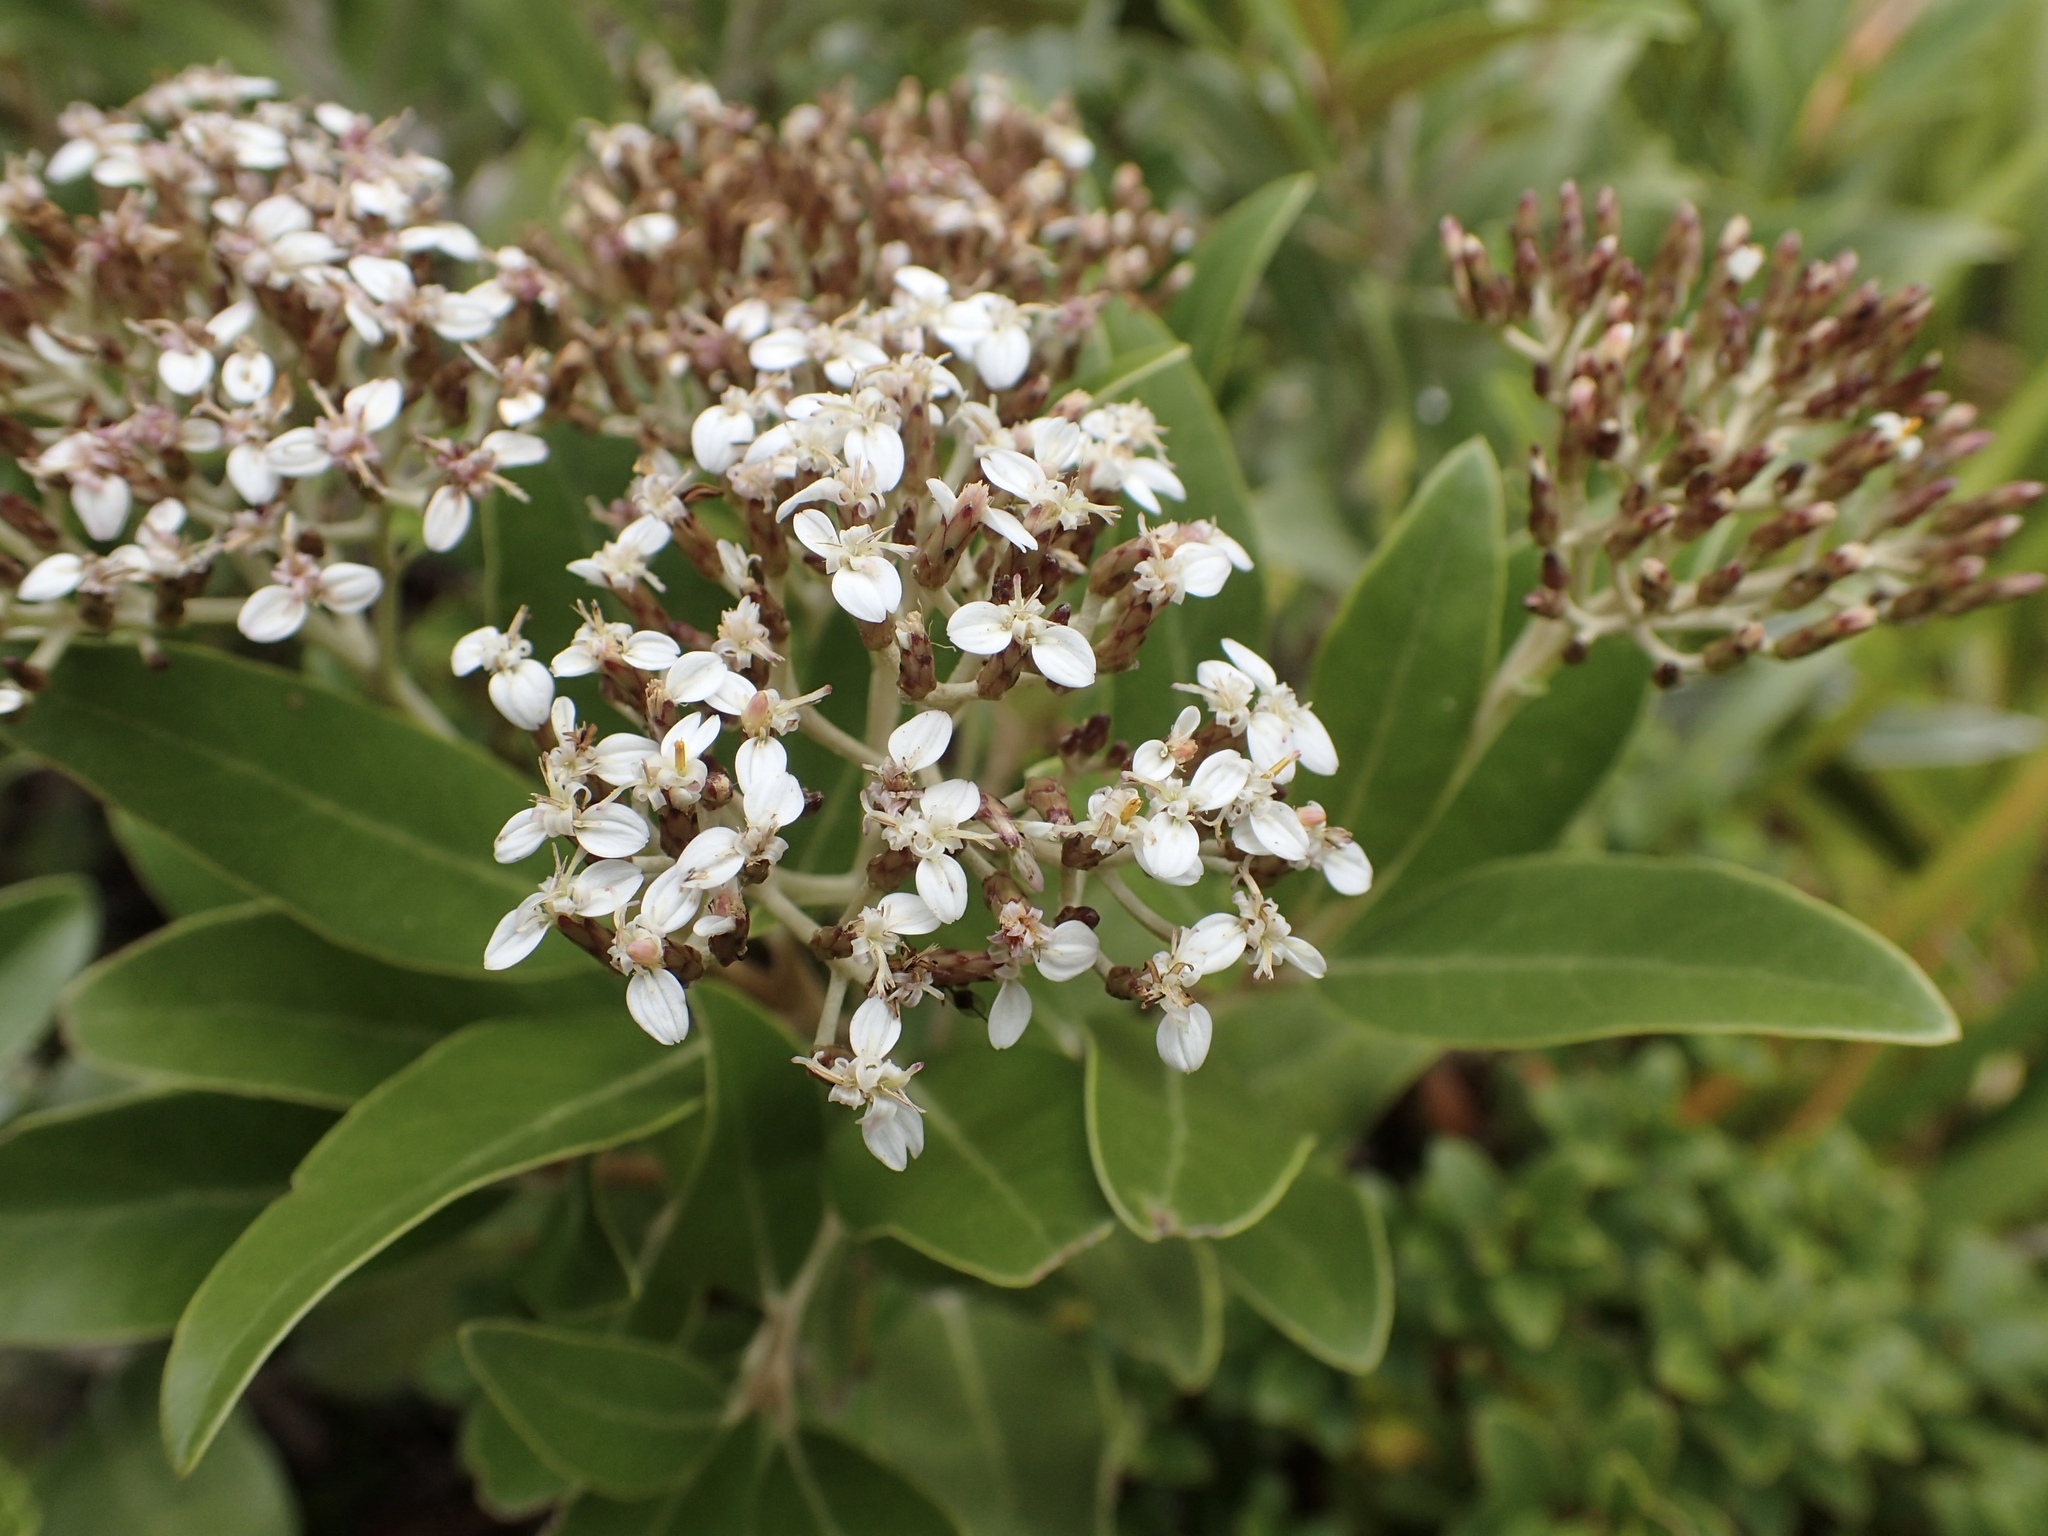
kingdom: Plantae
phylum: Tracheophyta
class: Magnoliopsida
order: Asterales
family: Asteraceae
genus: Olearia
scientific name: Olearia avicenniifolia
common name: Mangrove-leaf daisybush
